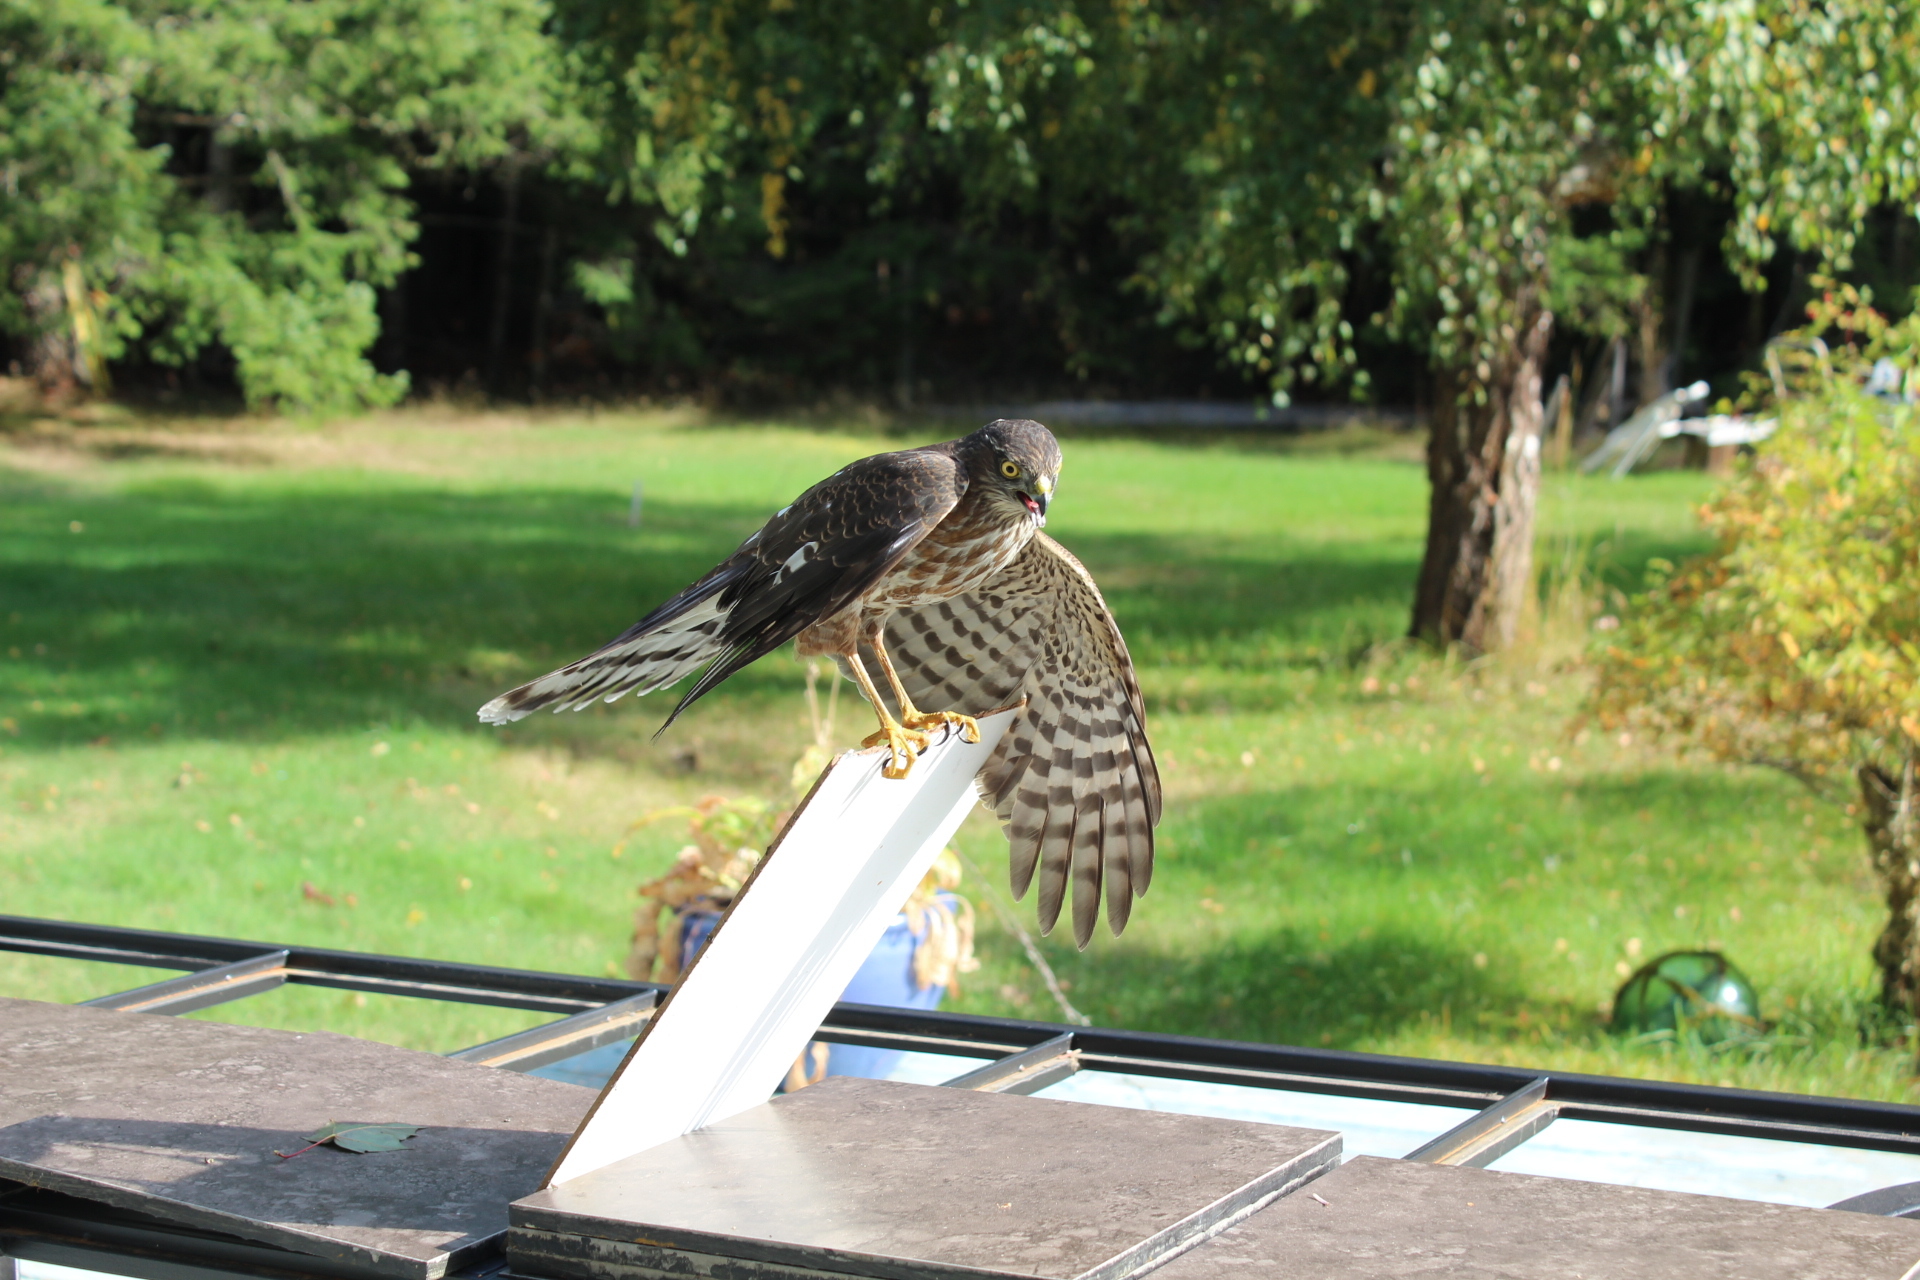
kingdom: Animalia
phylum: Chordata
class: Aves
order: Accipitriformes
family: Accipitridae
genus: Accipiter
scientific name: Accipiter striatus
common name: Sharp-shinned hawk
